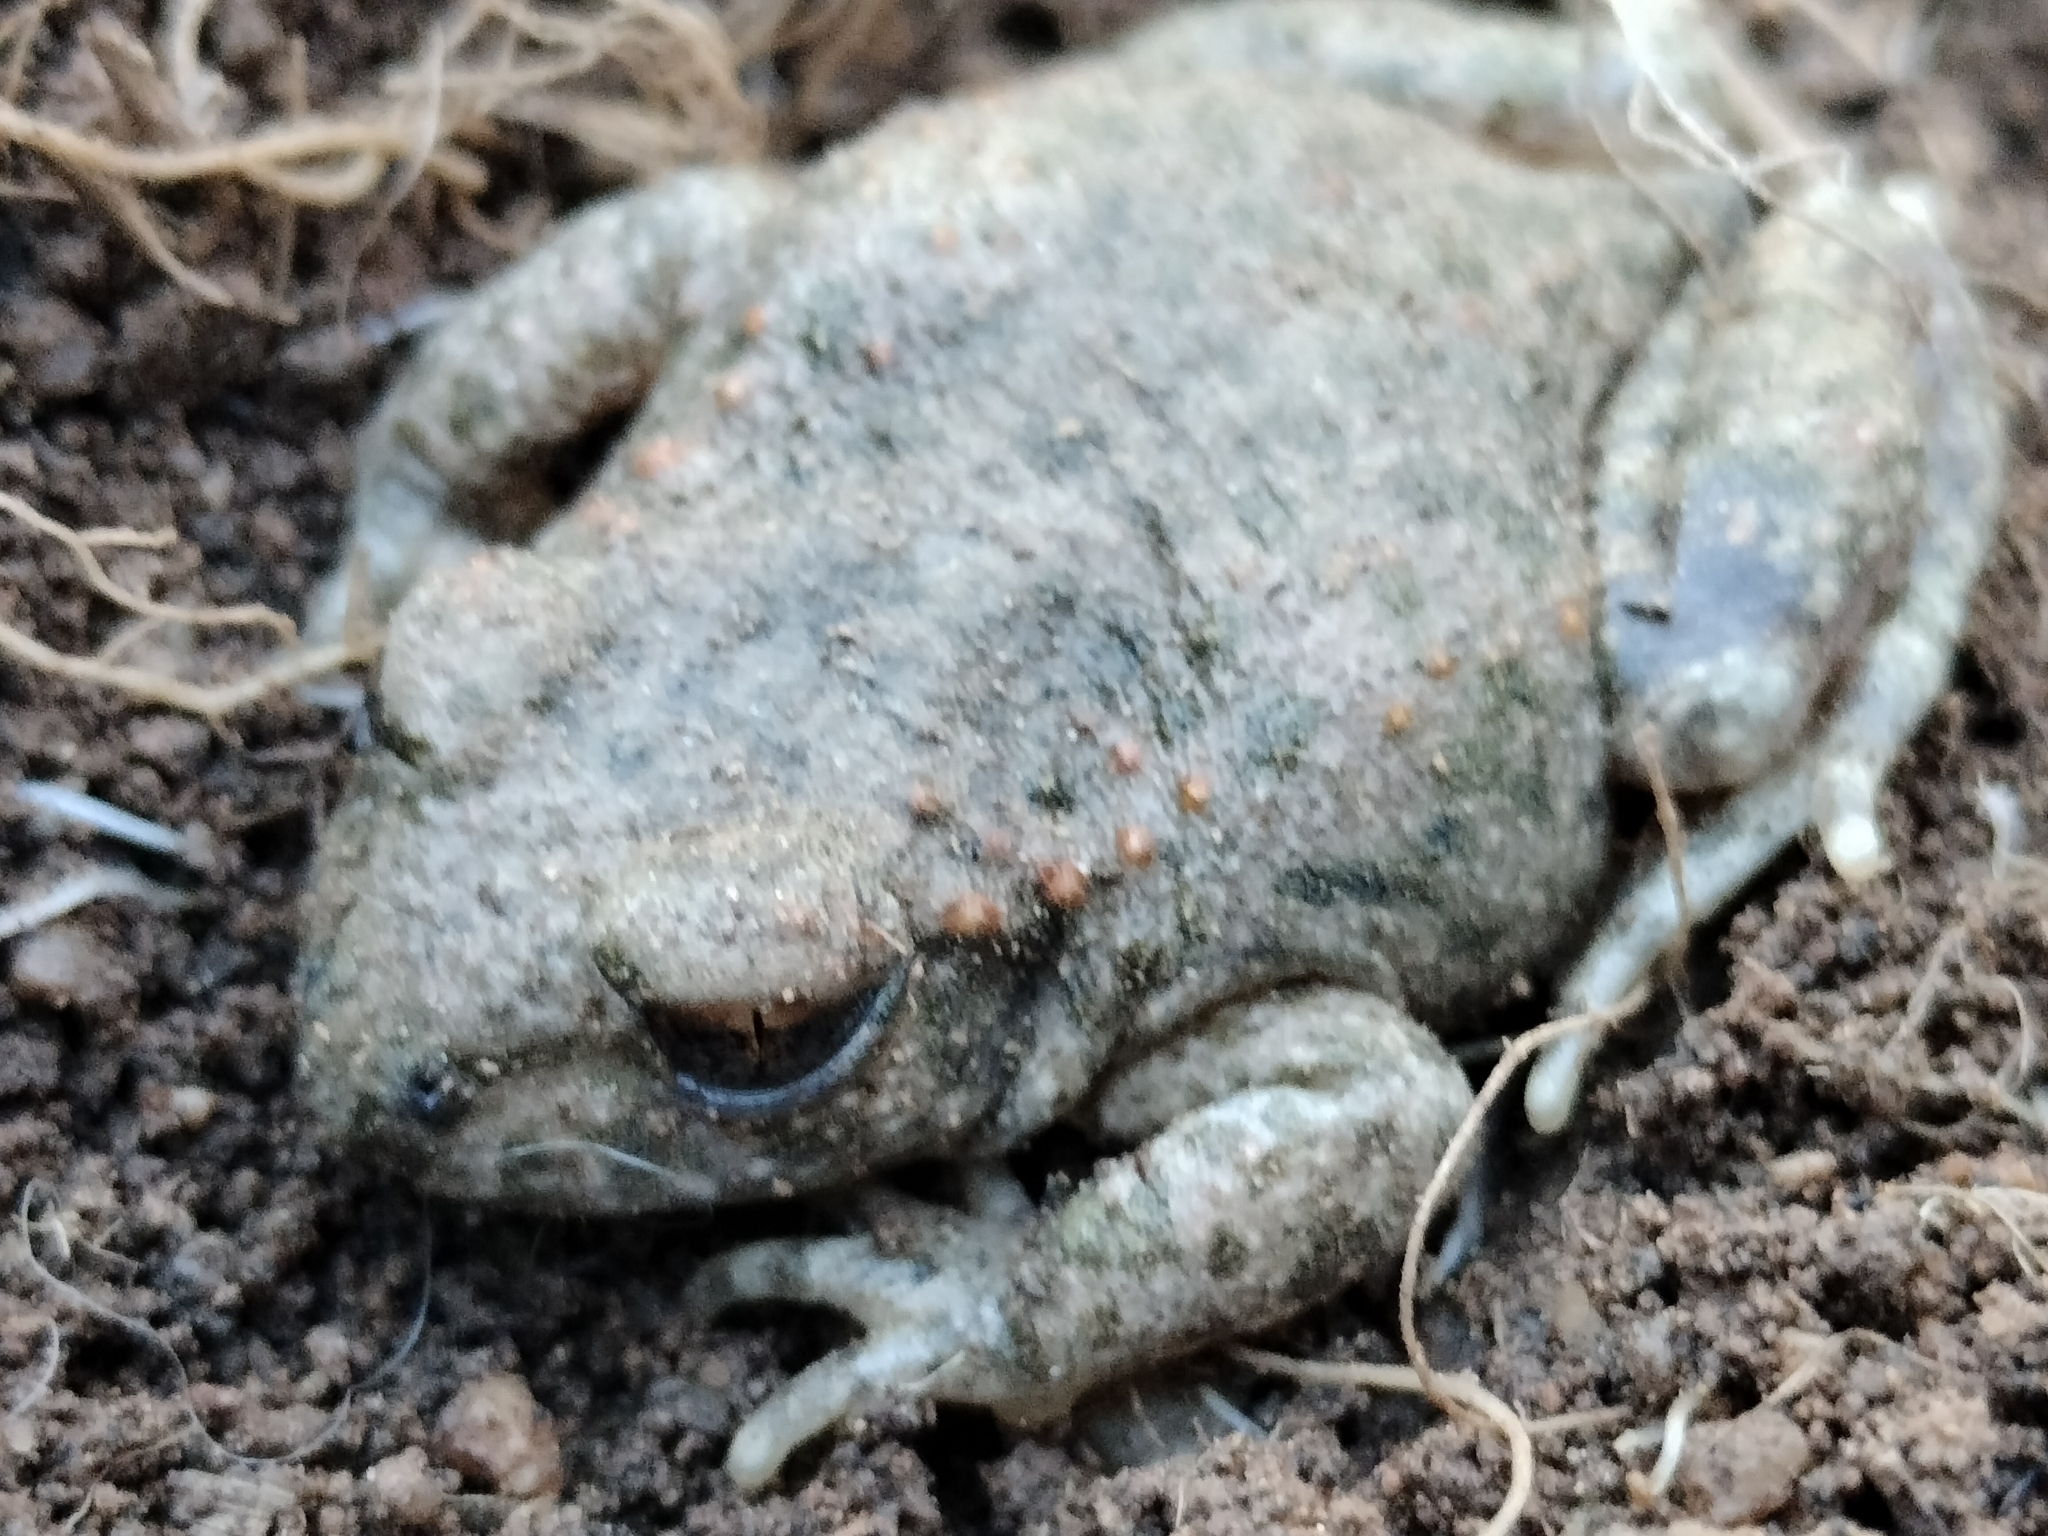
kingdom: Animalia
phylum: Chordata
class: Amphibia
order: Anura
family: Alytidae
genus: Alytes
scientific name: Alytes obstetricans
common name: Midwife toad
